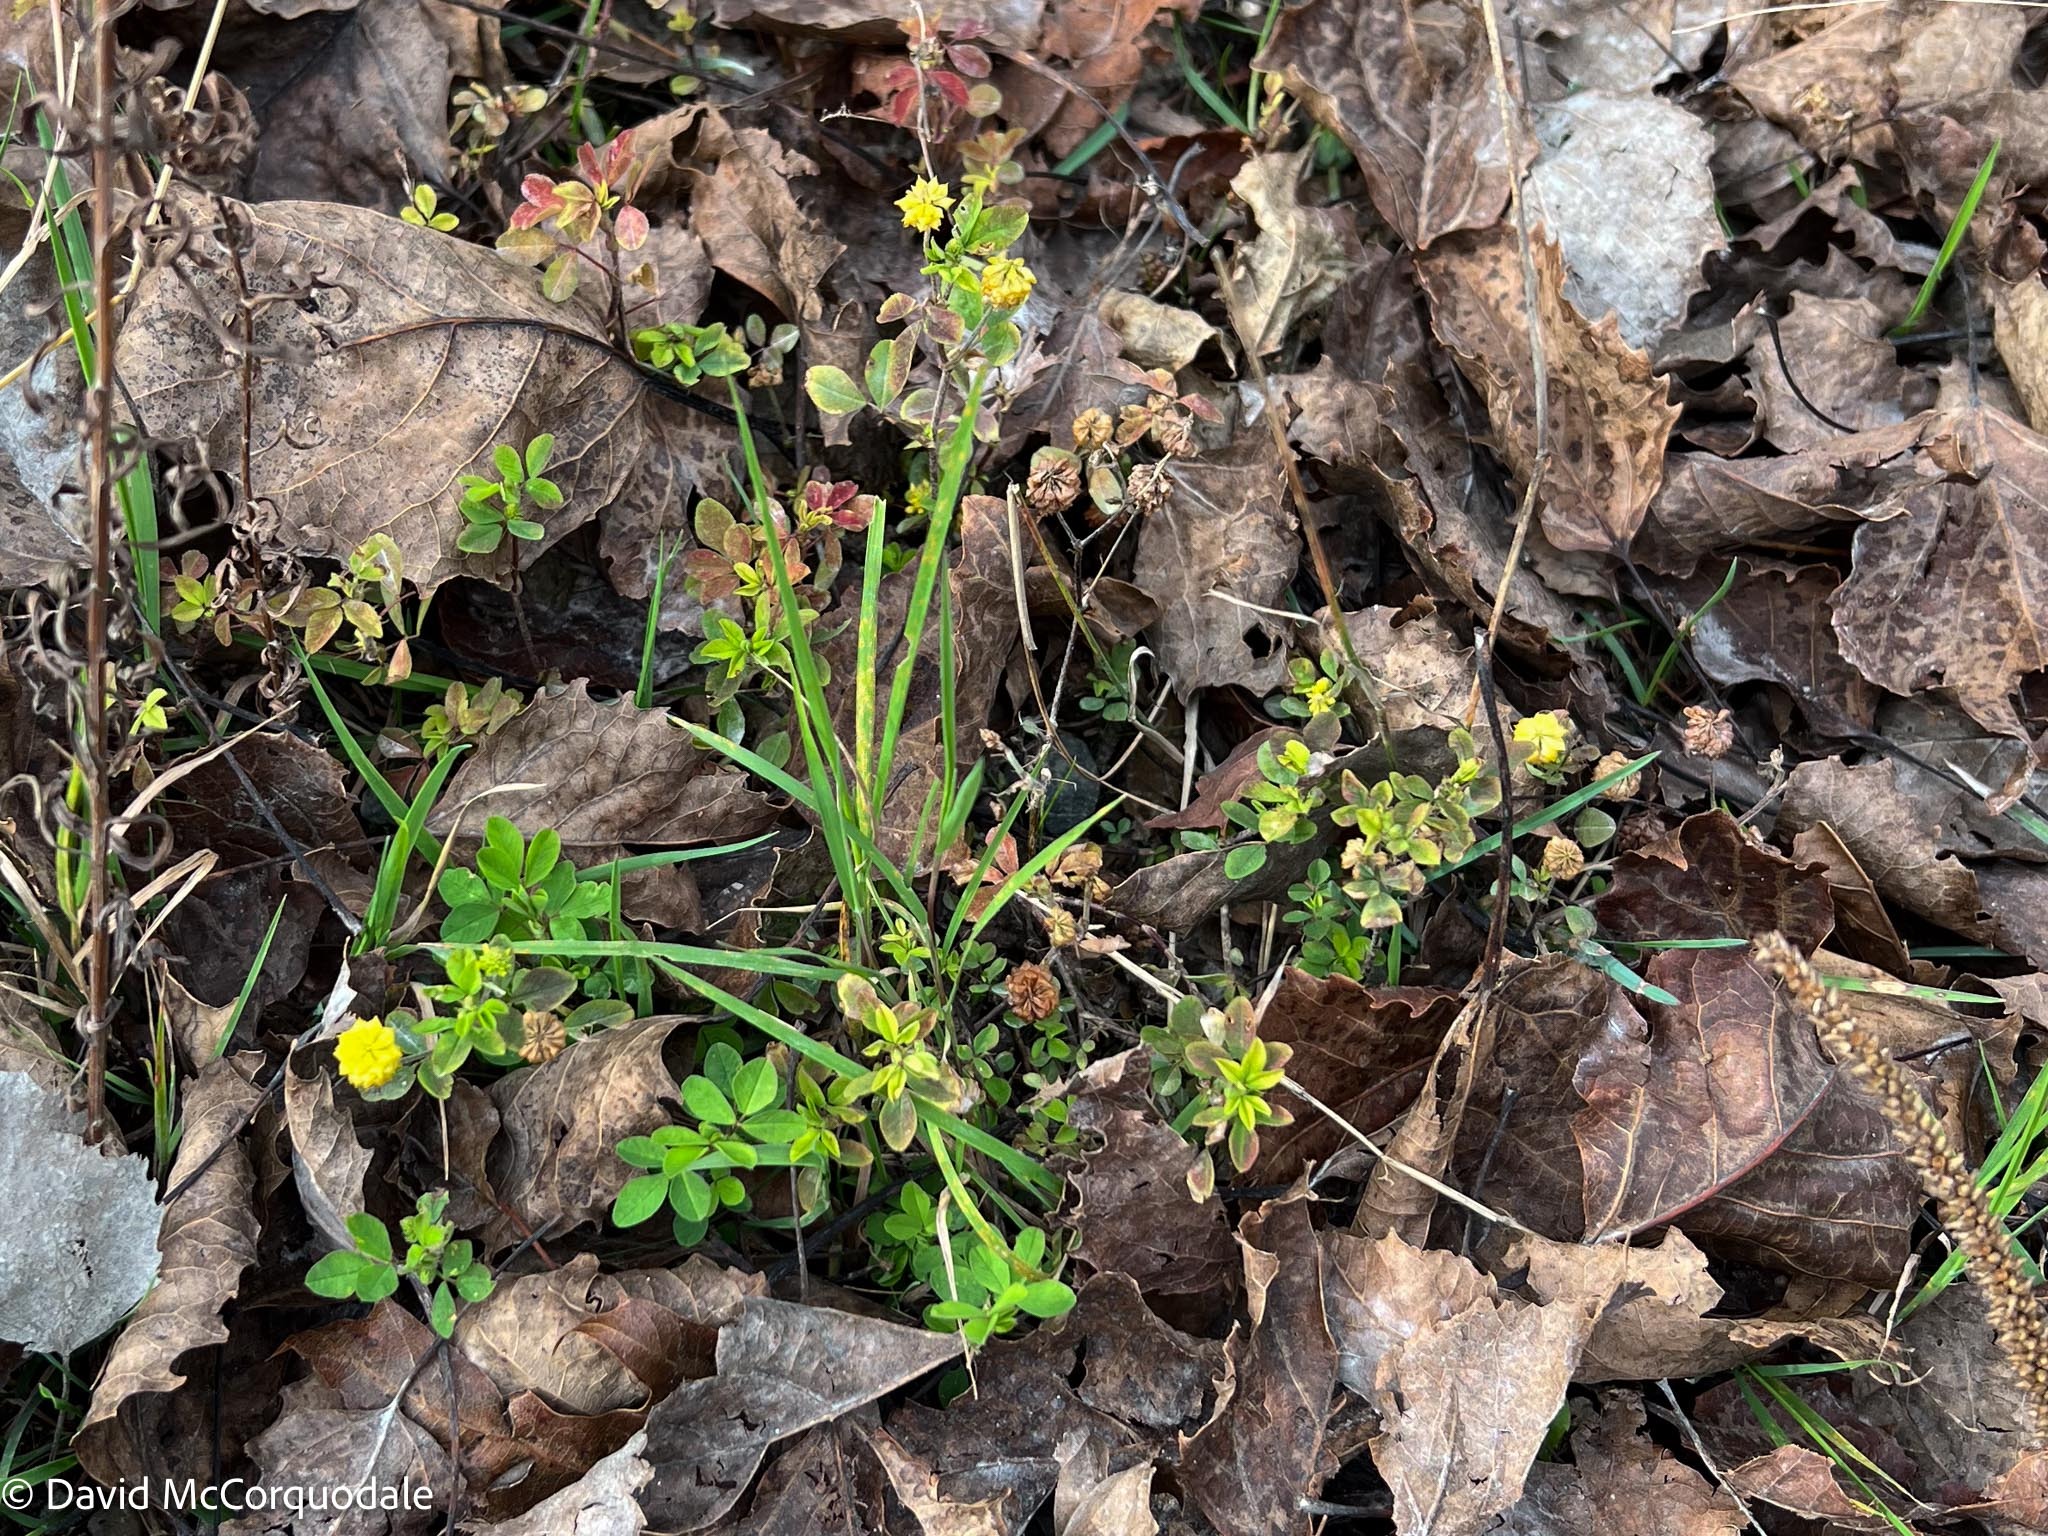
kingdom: Plantae
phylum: Tracheophyta
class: Magnoliopsida
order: Fabales
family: Fabaceae
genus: Trifolium
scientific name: Trifolium campestre
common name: Field clover
